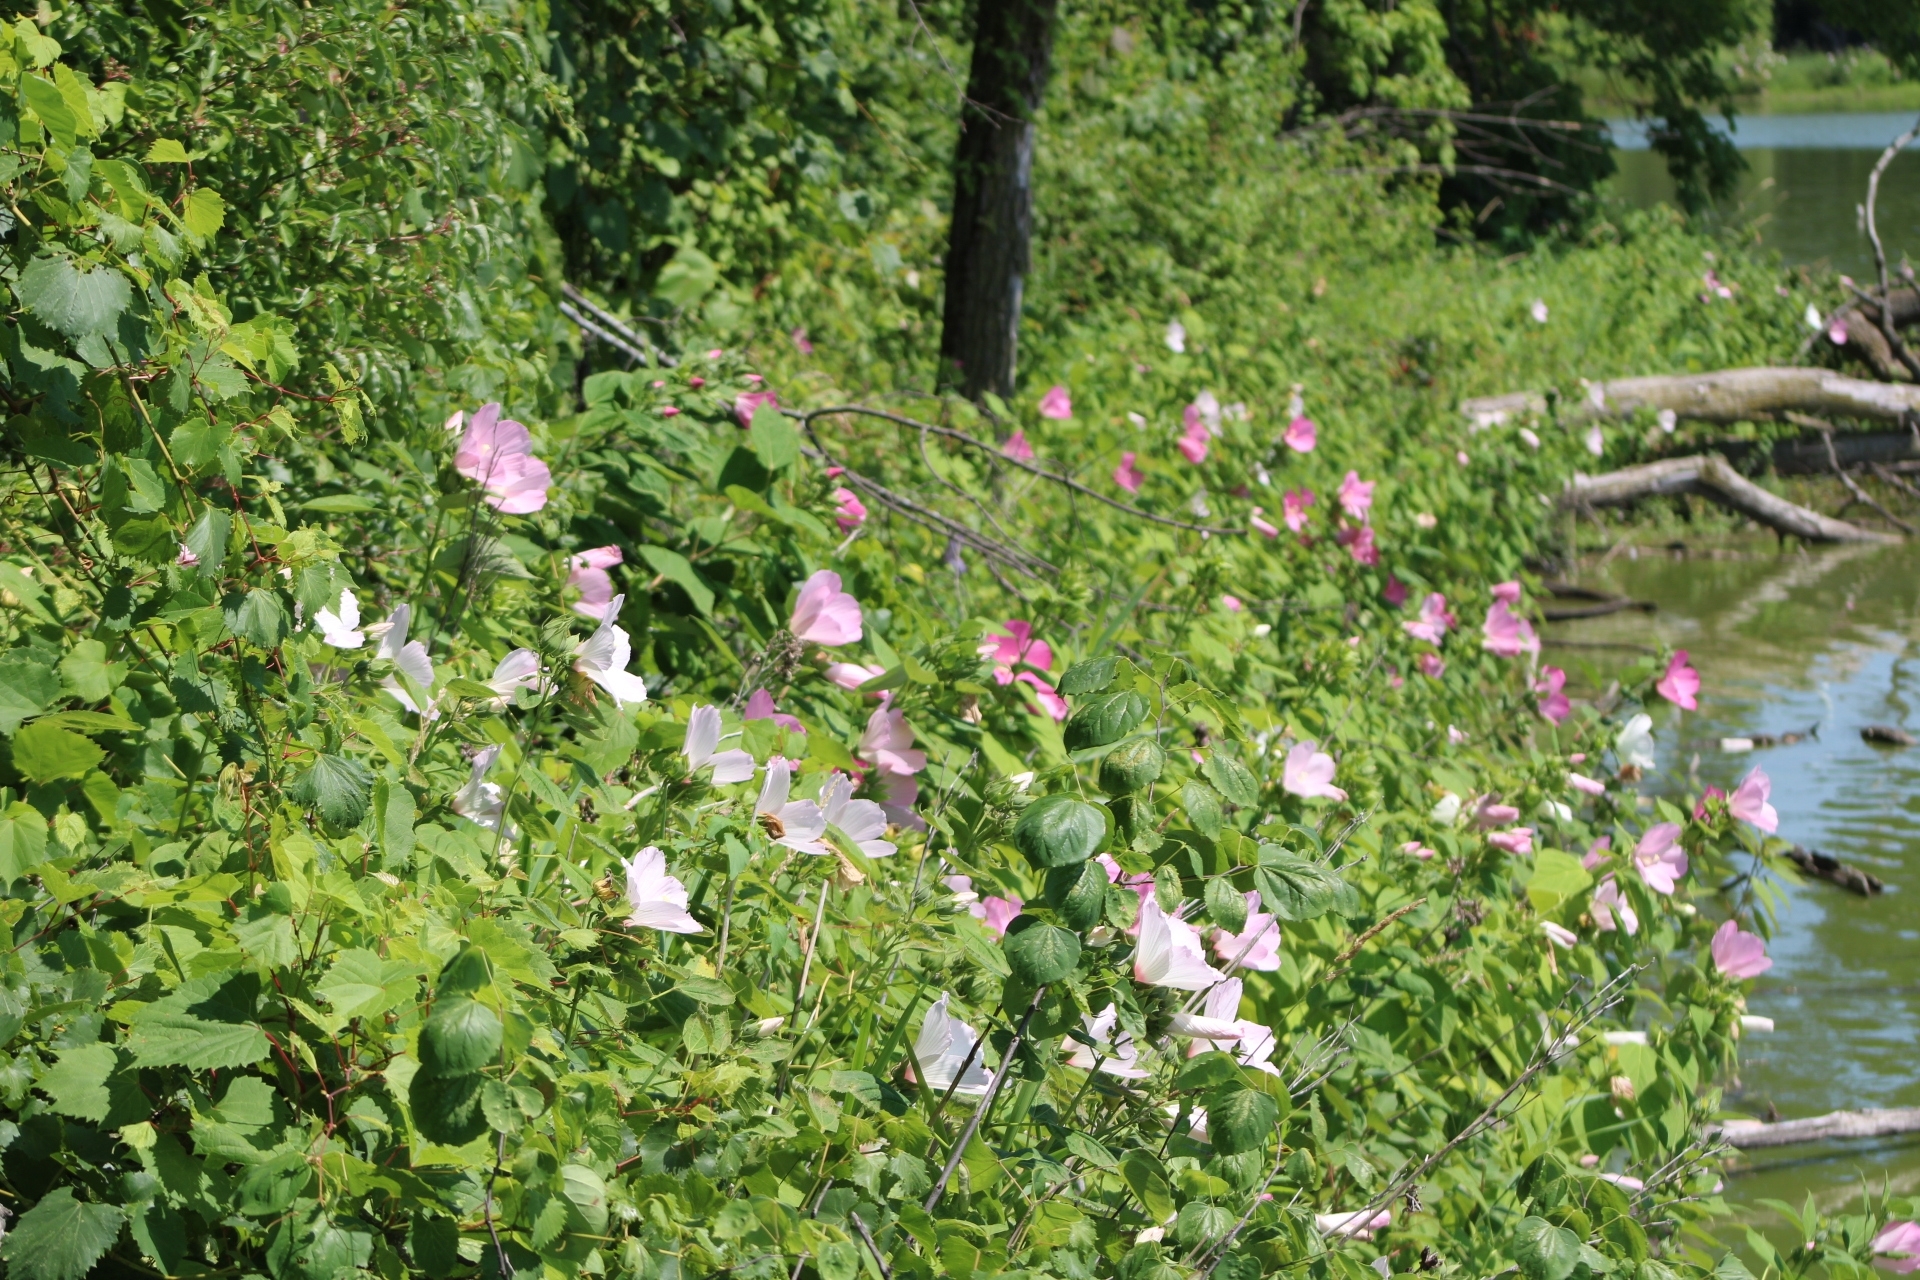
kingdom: Plantae
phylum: Tracheophyta
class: Magnoliopsida
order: Malvales
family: Malvaceae
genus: Hibiscus
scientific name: Hibiscus moscheutos
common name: Common rose-mallow
